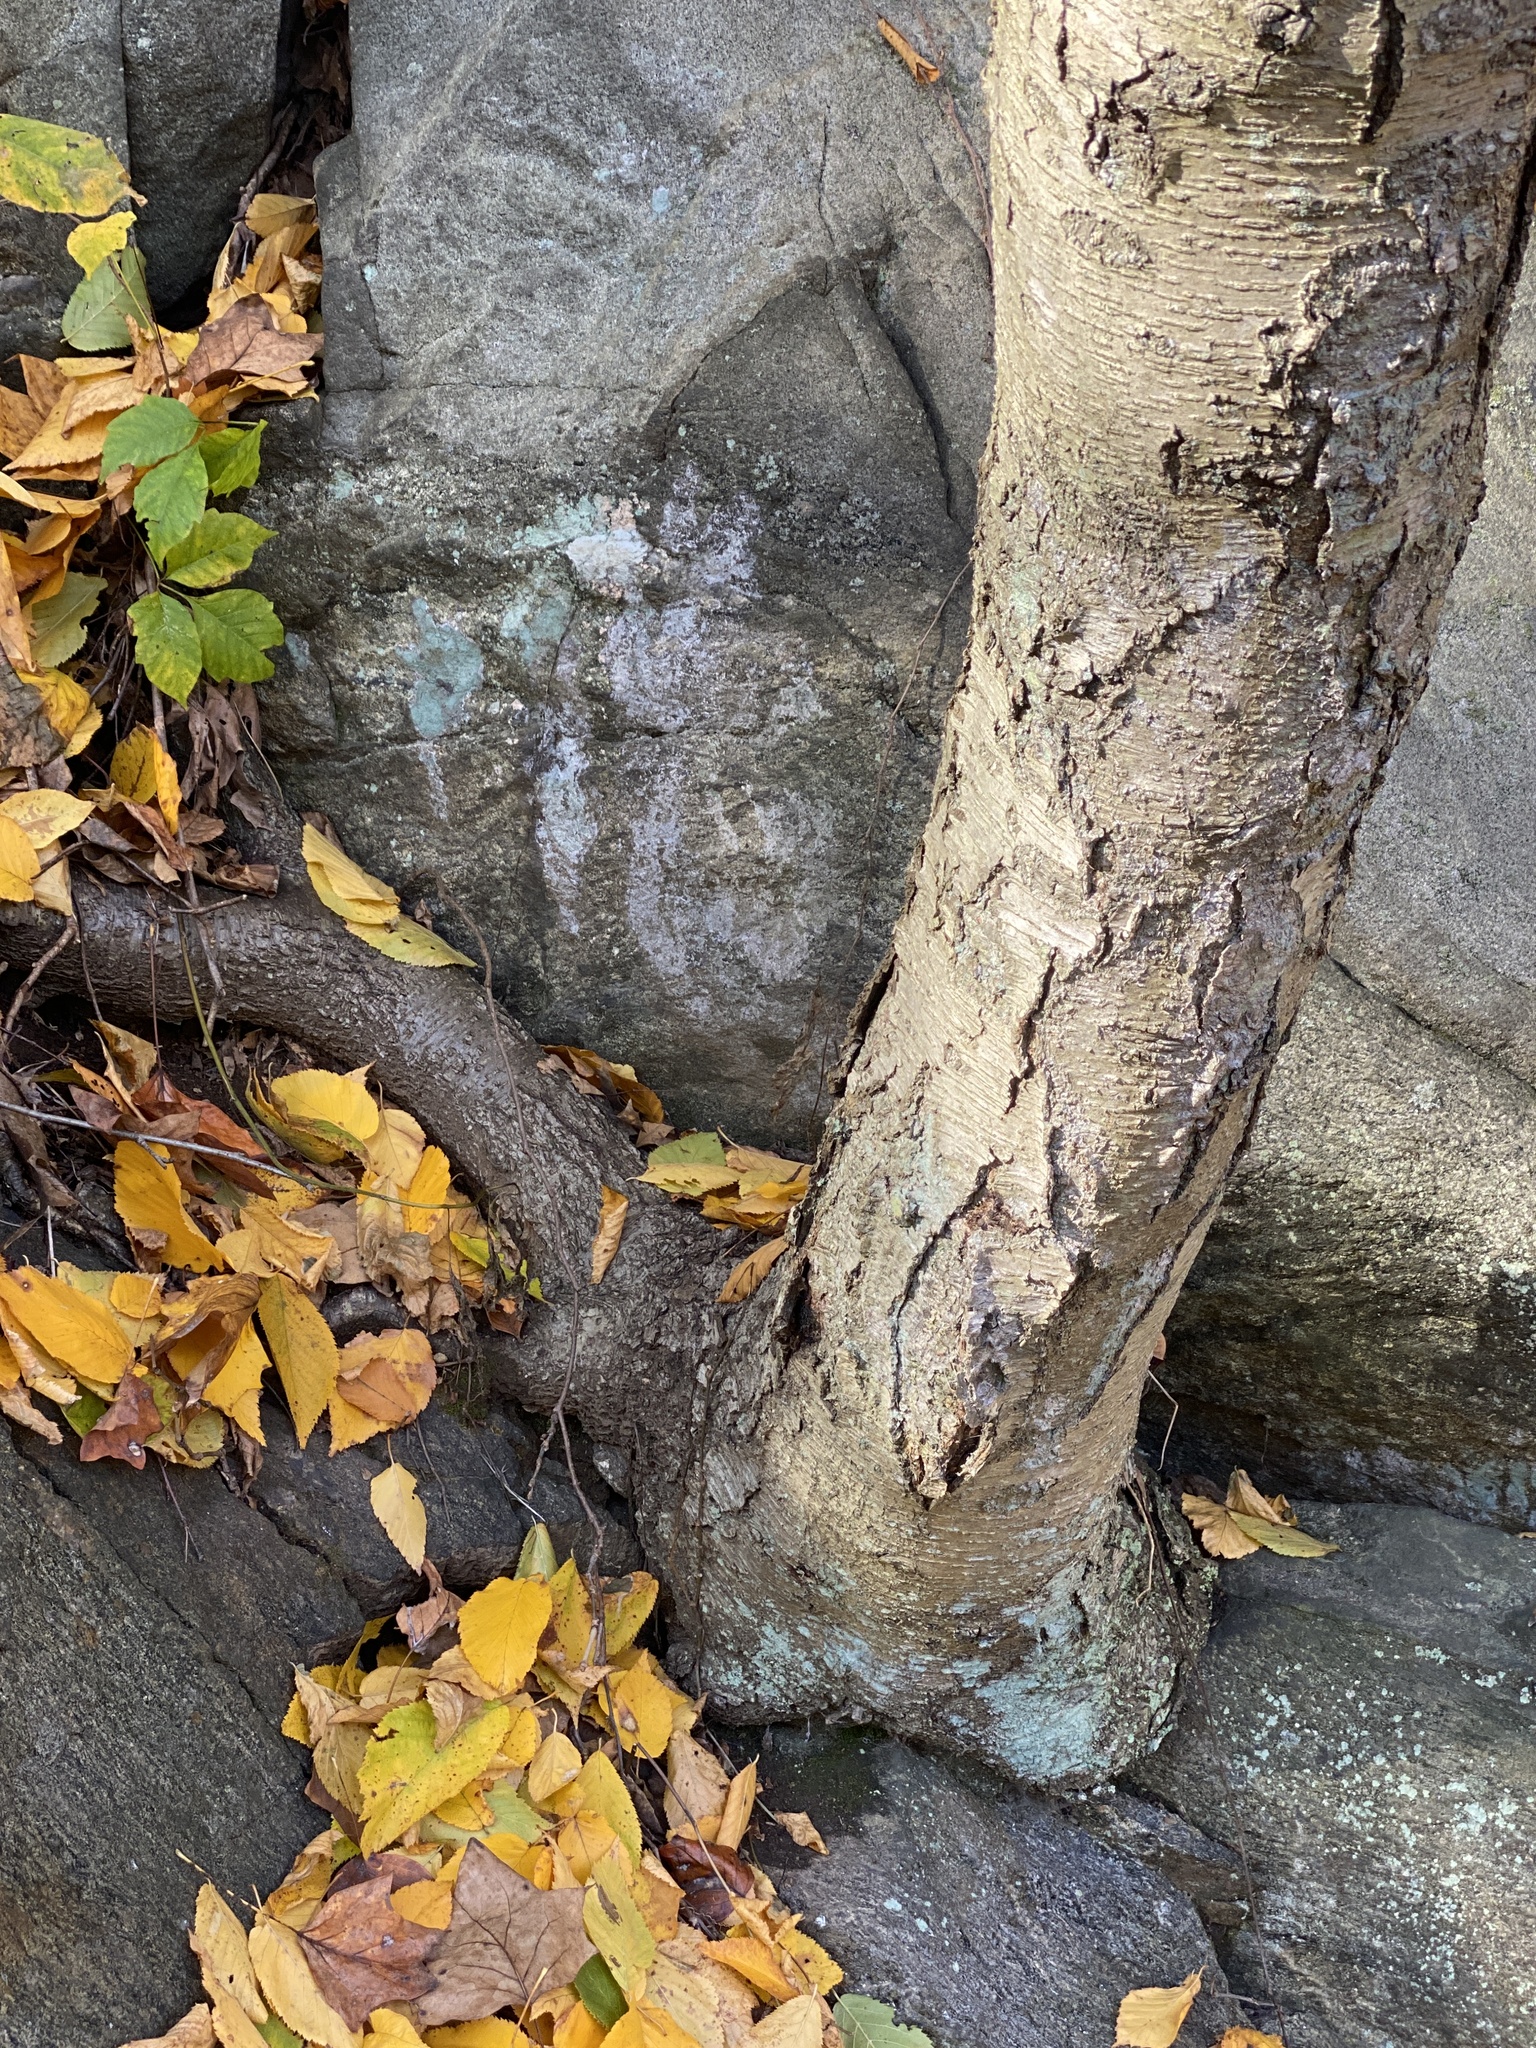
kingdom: Plantae
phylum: Tracheophyta
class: Magnoliopsida
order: Fagales
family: Betulaceae
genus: Betula
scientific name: Betula lenta
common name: Black birch
